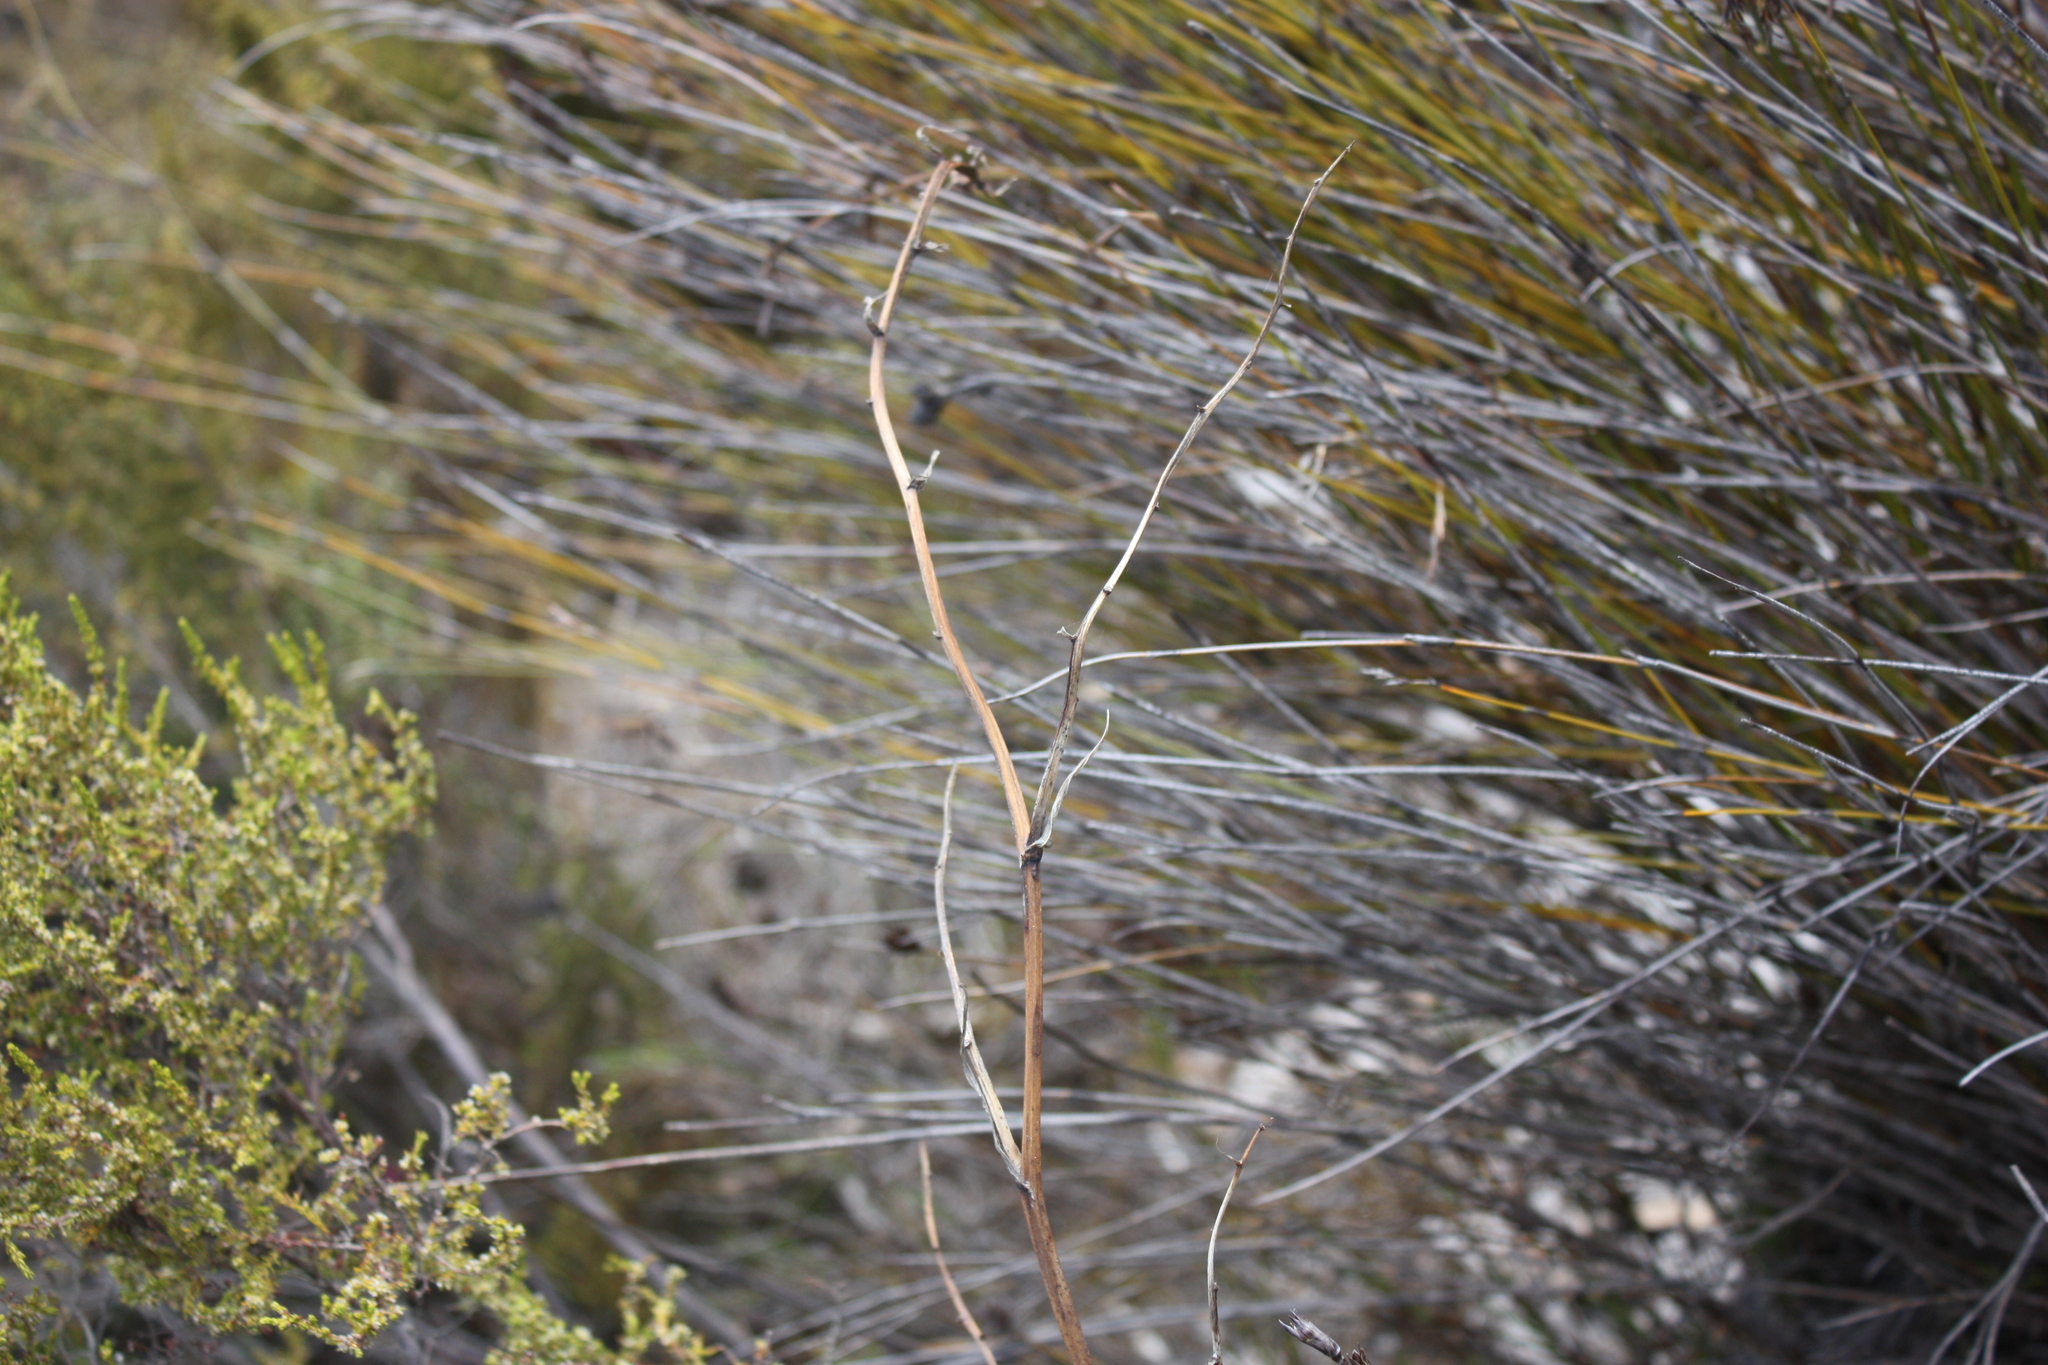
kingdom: Plantae
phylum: Tracheophyta
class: Liliopsida
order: Asparagales
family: Orchidaceae
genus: Eulophia
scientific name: Eulophia lamellata
